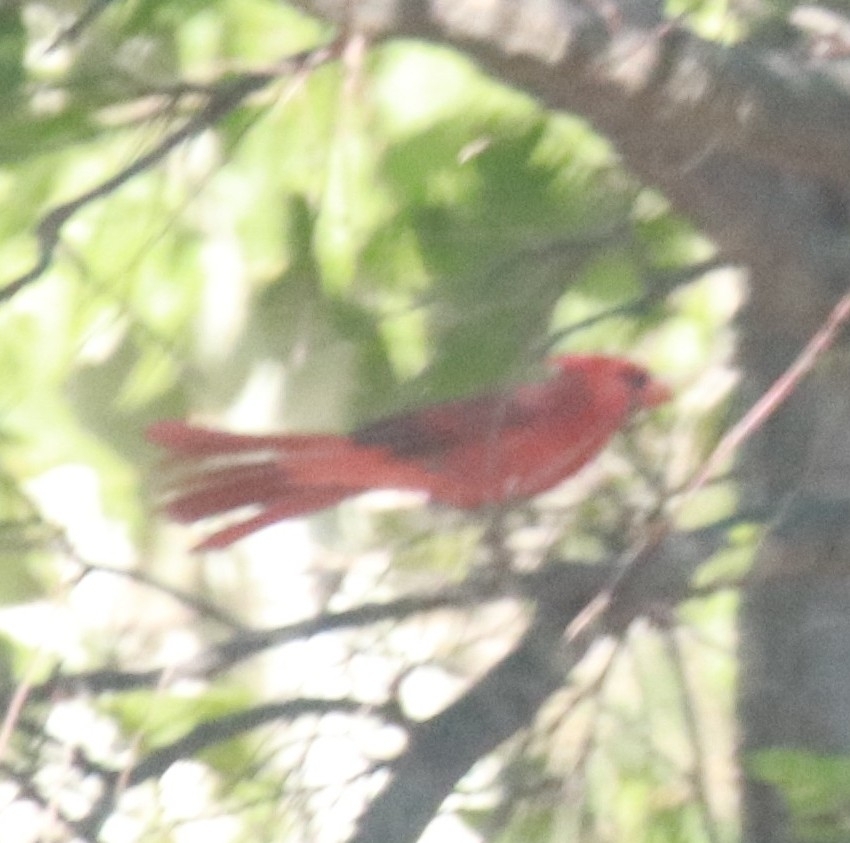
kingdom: Animalia
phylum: Chordata
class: Aves
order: Passeriformes
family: Cardinalidae
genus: Cardinalis
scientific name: Cardinalis cardinalis
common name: Northern cardinal
